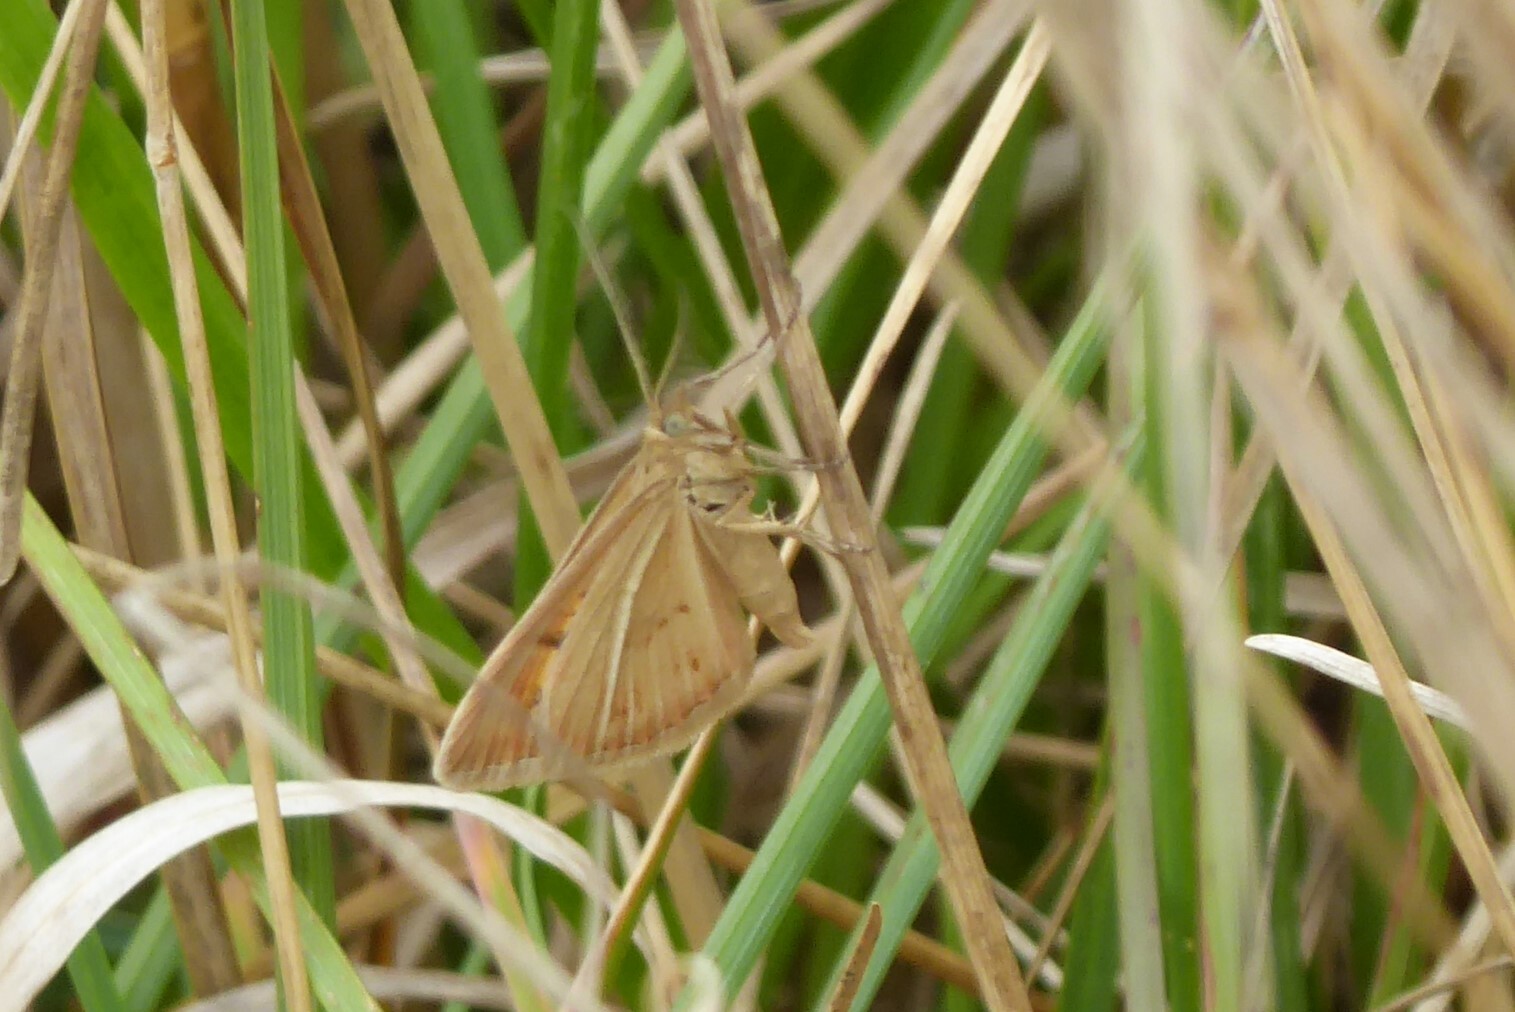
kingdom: Animalia
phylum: Arthropoda
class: Insecta
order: Lepidoptera
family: Geometridae
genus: Asaphodes
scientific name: Asaphodes abrogata
